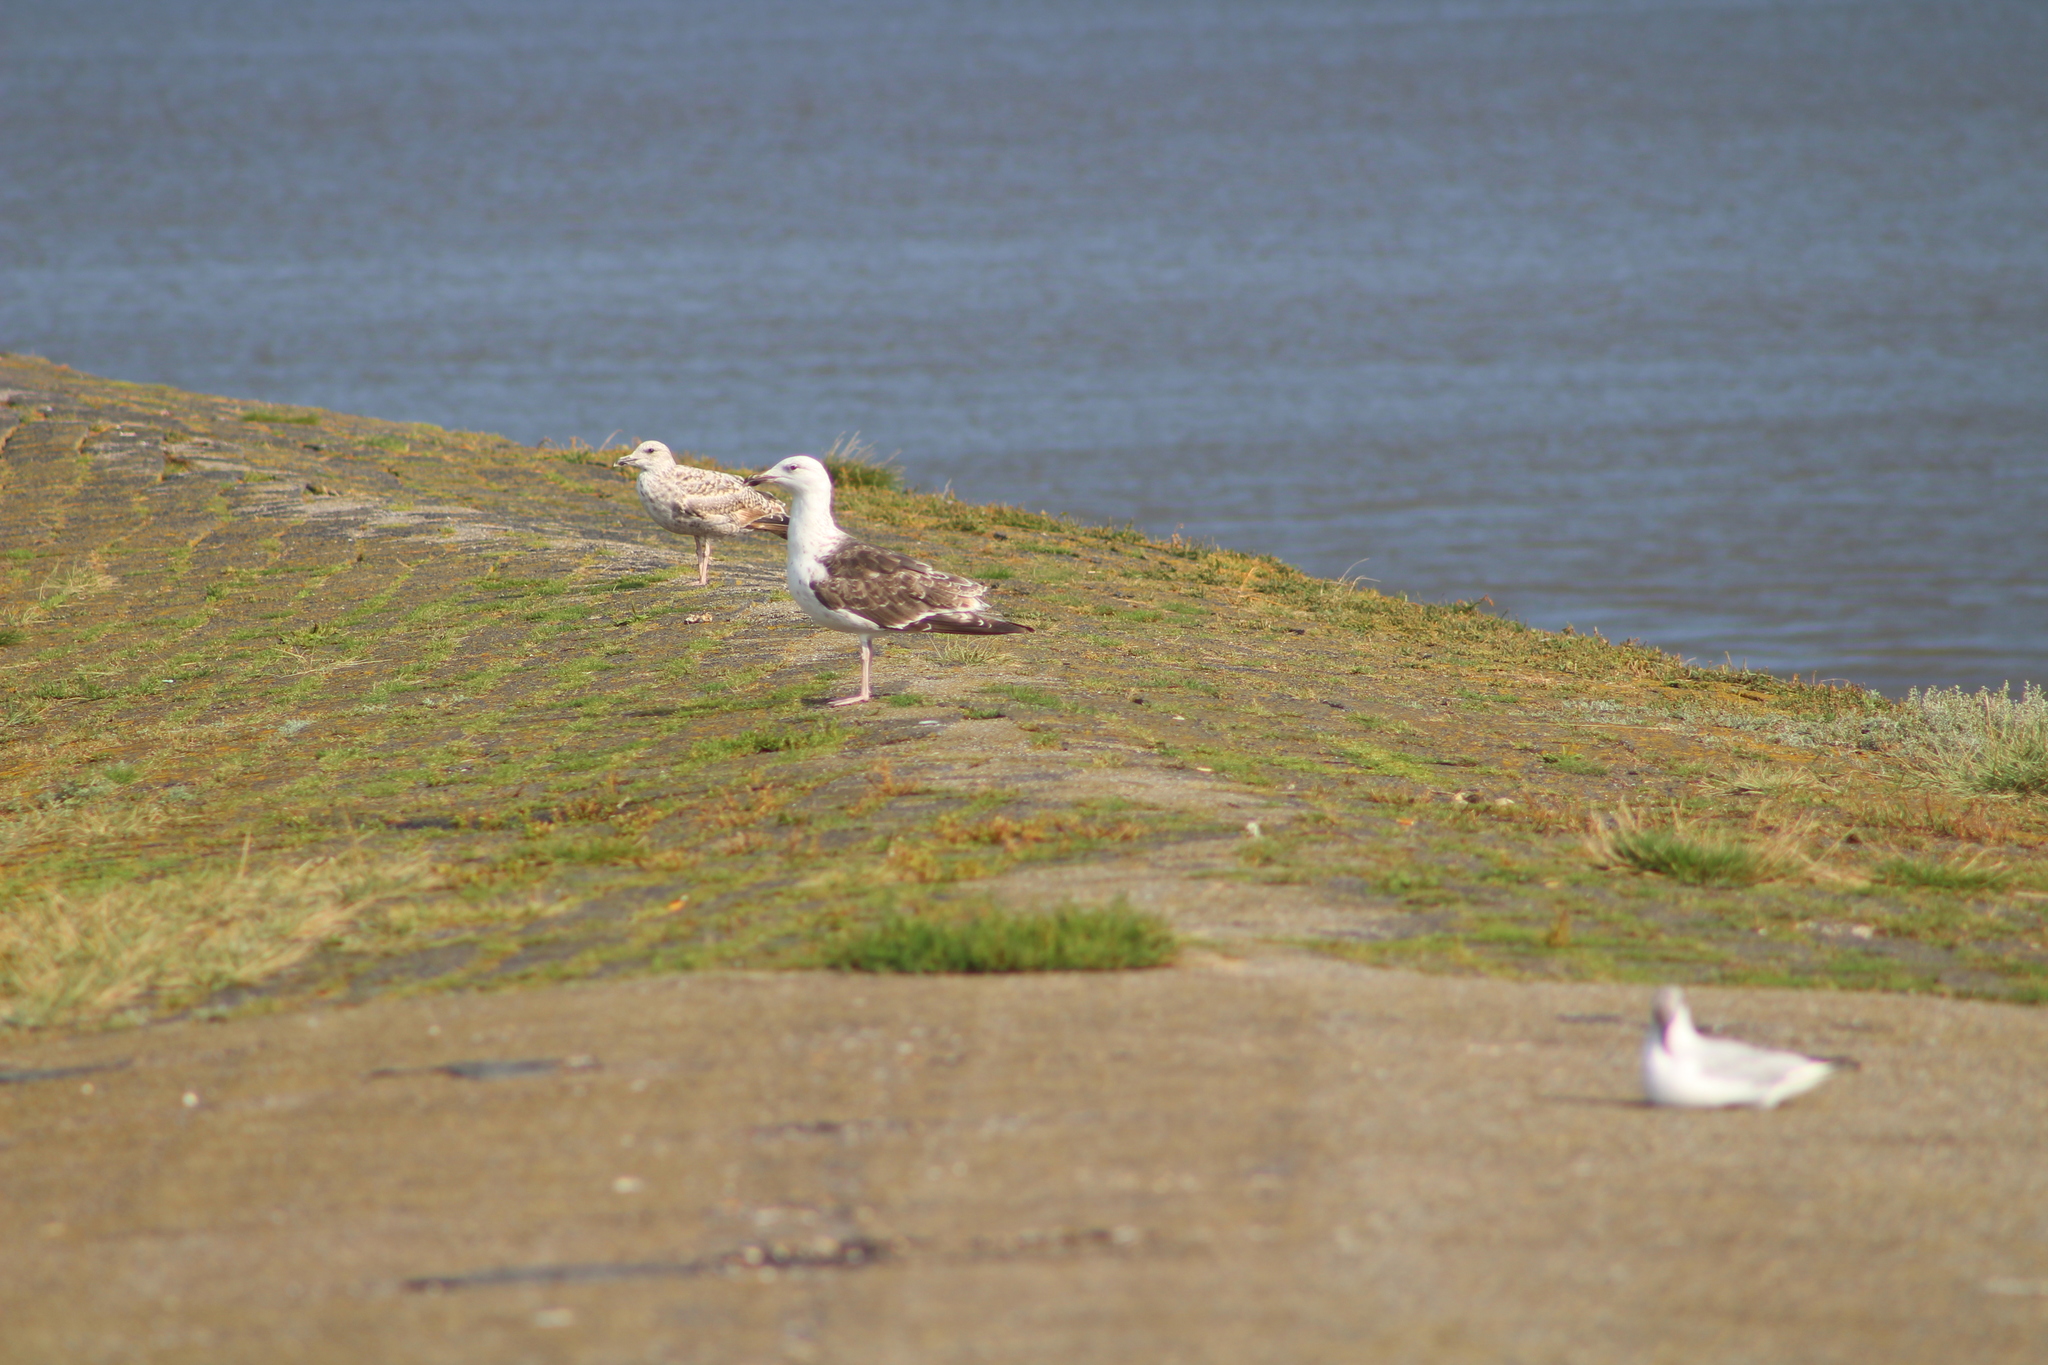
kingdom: Animalia
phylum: Chordata
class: Aves
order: Charadriiformes
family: Laridae
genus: Larus
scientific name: Larus marinus
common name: Great black-backed gull
